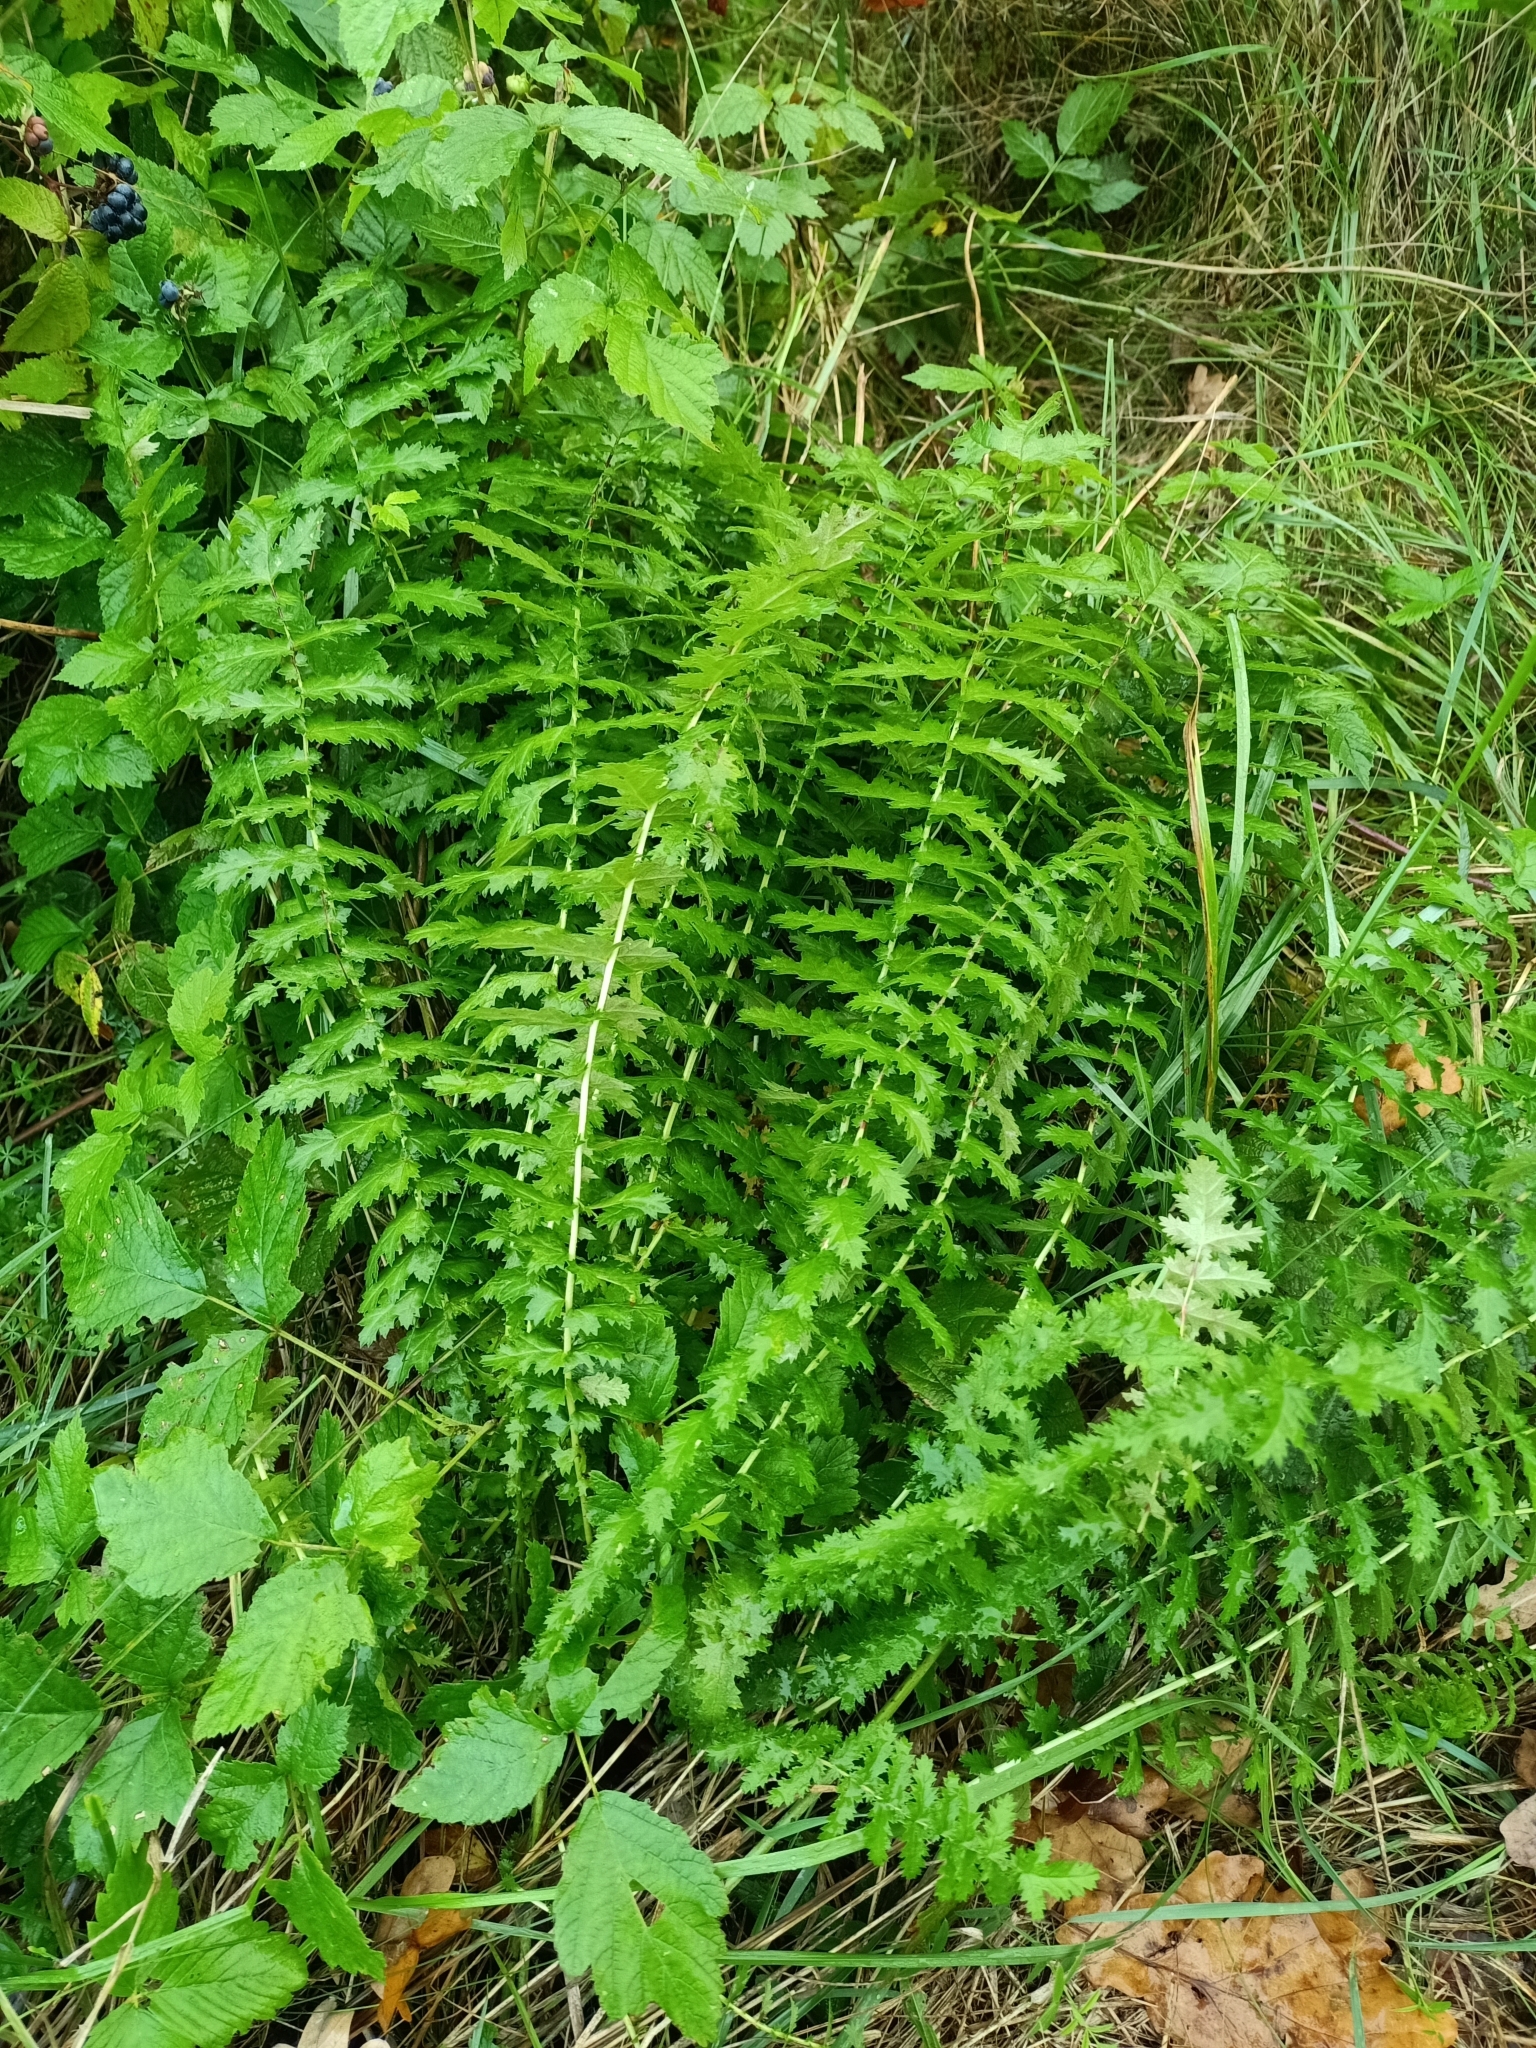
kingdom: Plantae
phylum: Tracheophyta
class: Magnoliopsida
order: Rosales
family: Rosaceae
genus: Filipendula
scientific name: Filipendula vulgaris
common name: Dropwort
